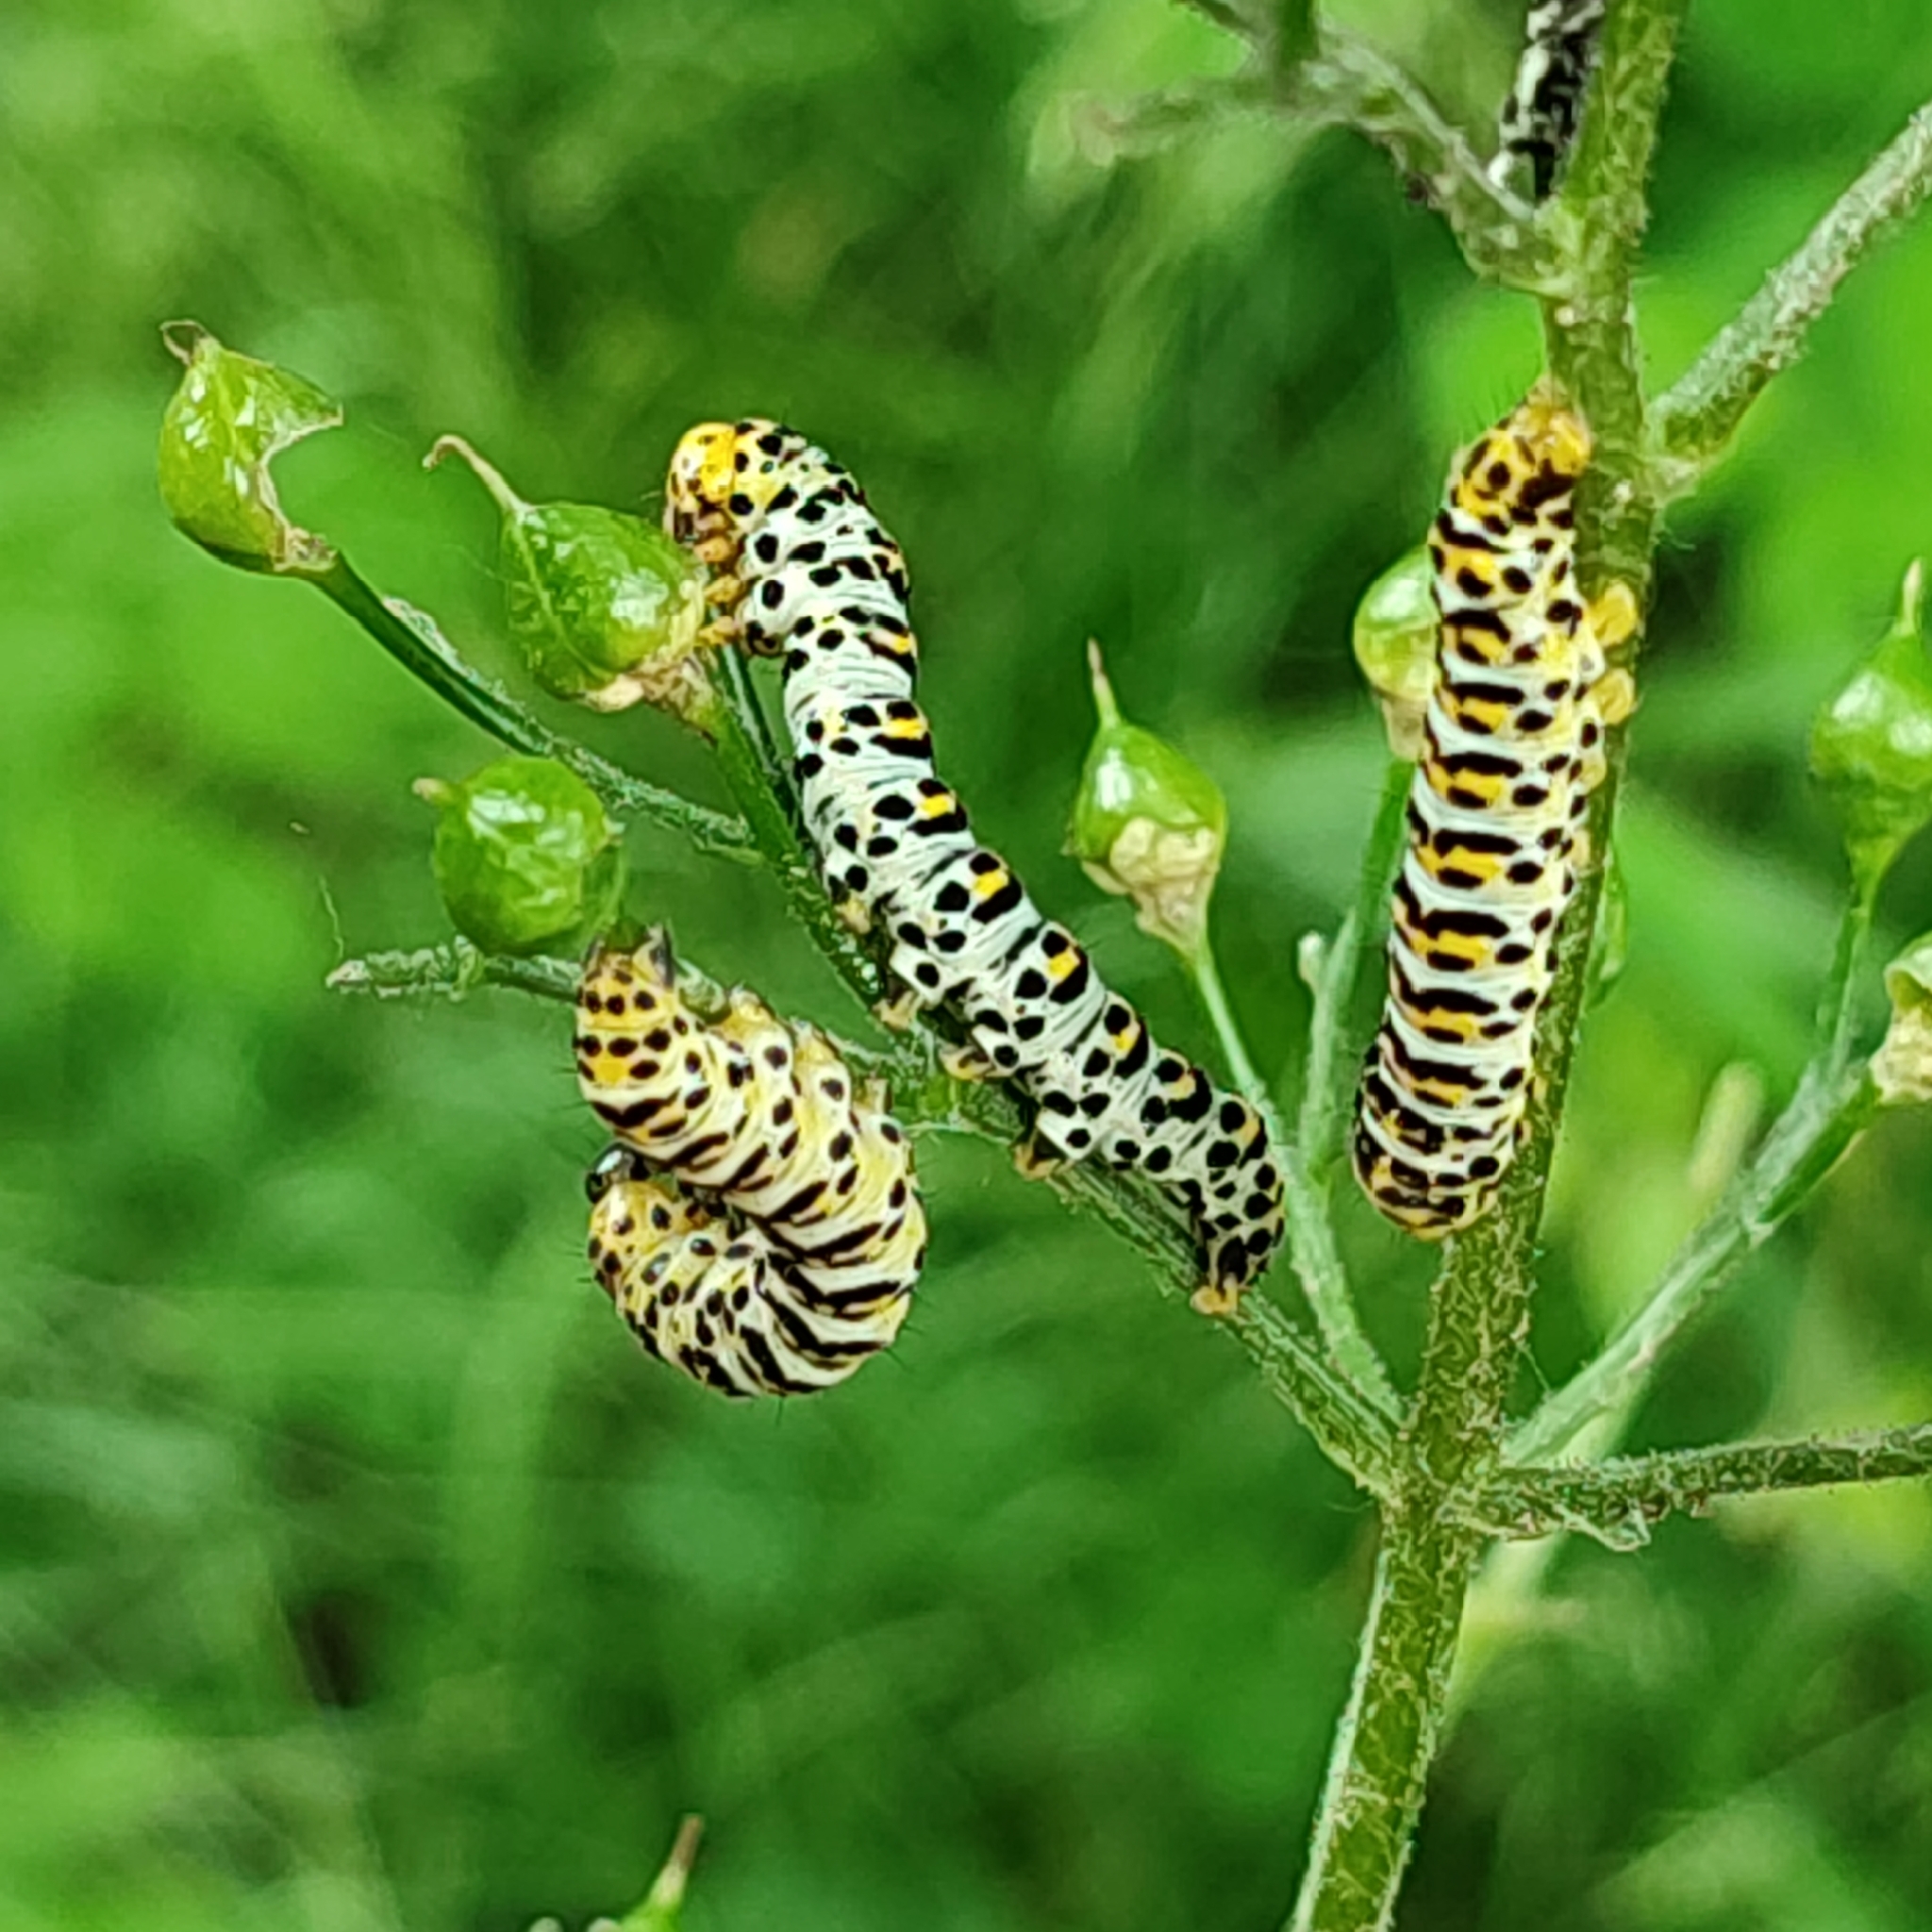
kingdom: Animalia
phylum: Arthropoda
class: Insecta
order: Lepidoptera
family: Noctuidae
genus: Shargacucullia
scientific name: Shargacucullia scrophulariae
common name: Water betony
